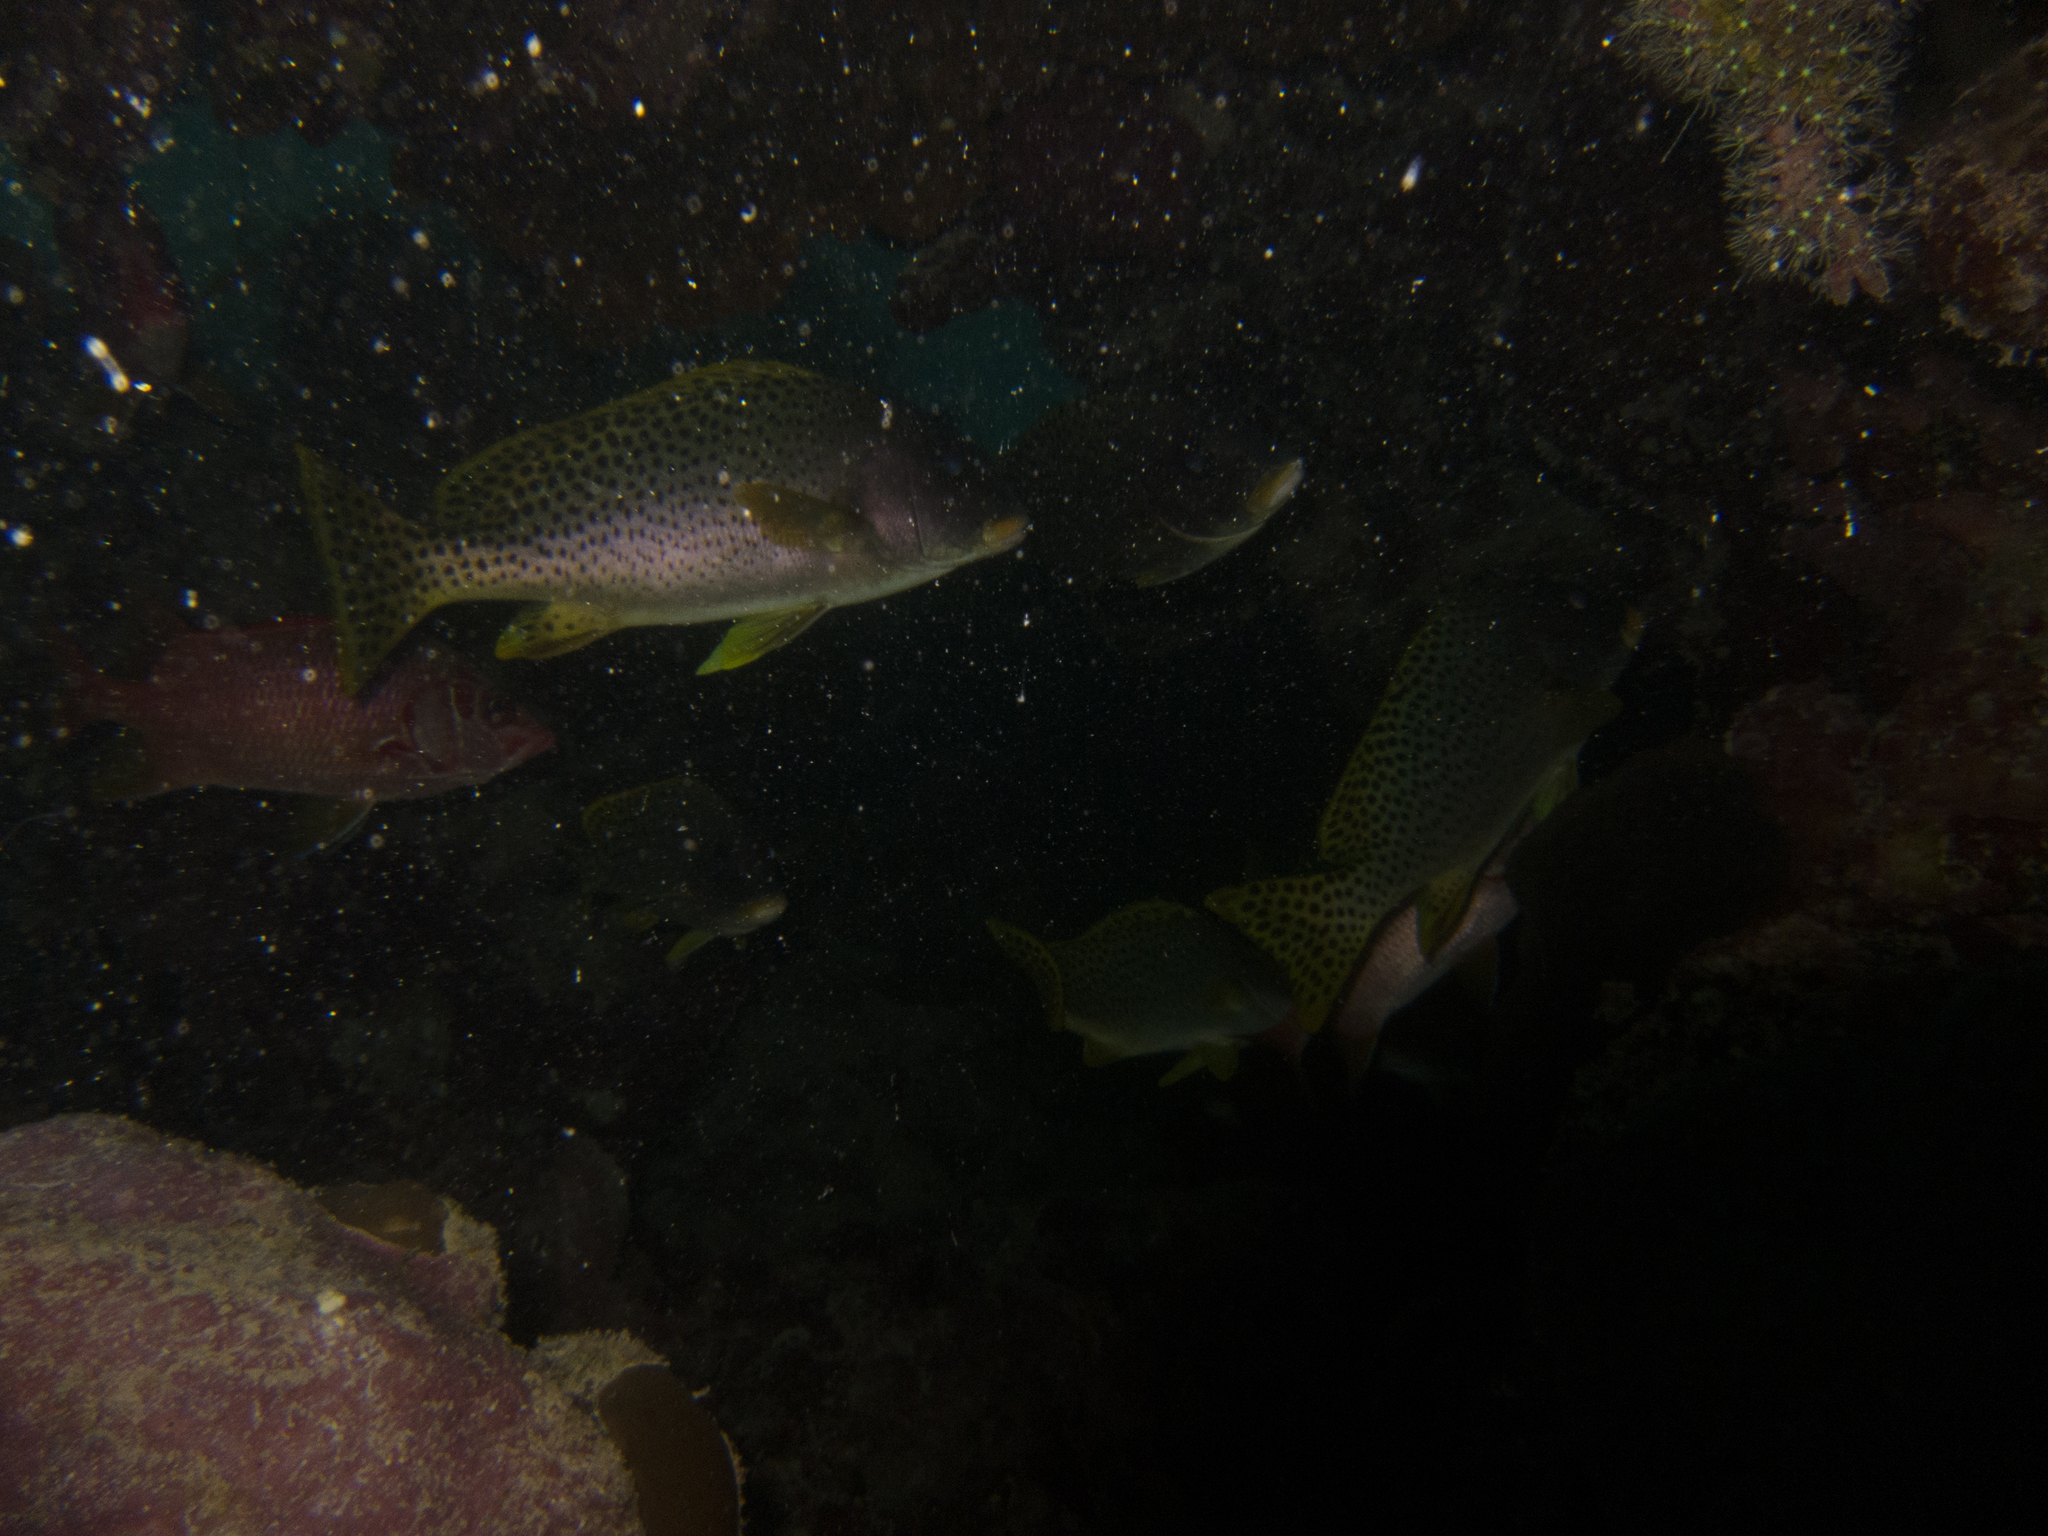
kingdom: Animalia
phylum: Chordata
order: Perciformes
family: Haemulidae
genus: Plectorhinchus
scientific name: Plectorhinchus gaterinus
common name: Blackspotted rubberlip
